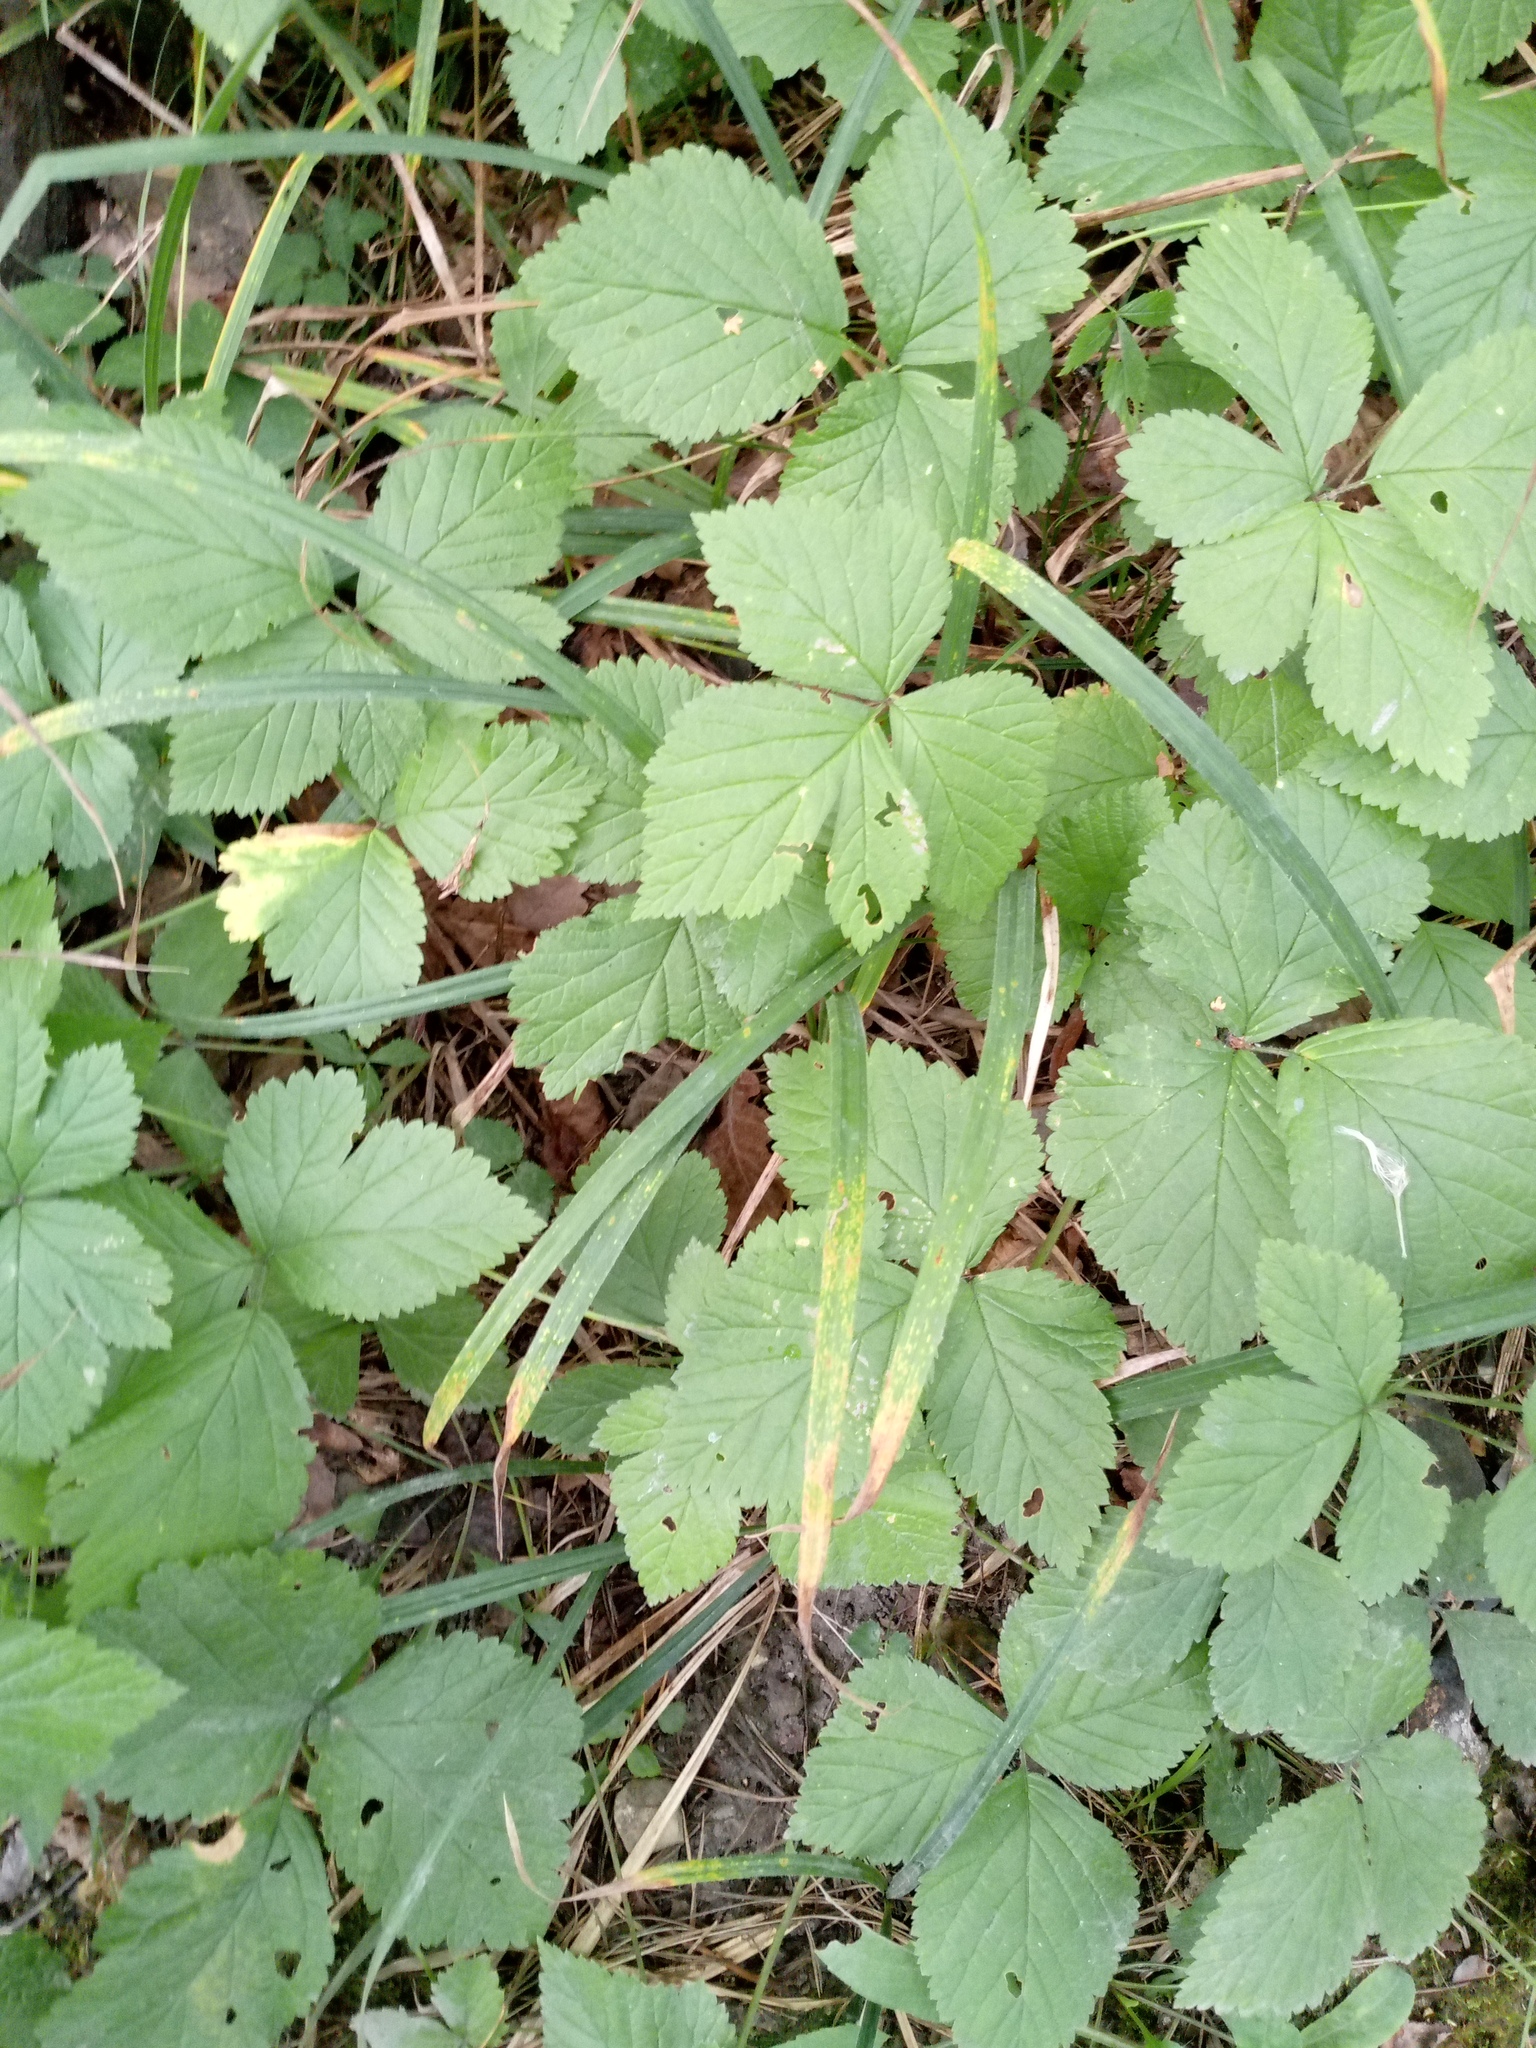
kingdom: Plantae
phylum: Tracheophyta
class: Magnoliopsida
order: Rosales
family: Rosaceae
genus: Rubus
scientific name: Rubus saxatilis
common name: Stone bramble
